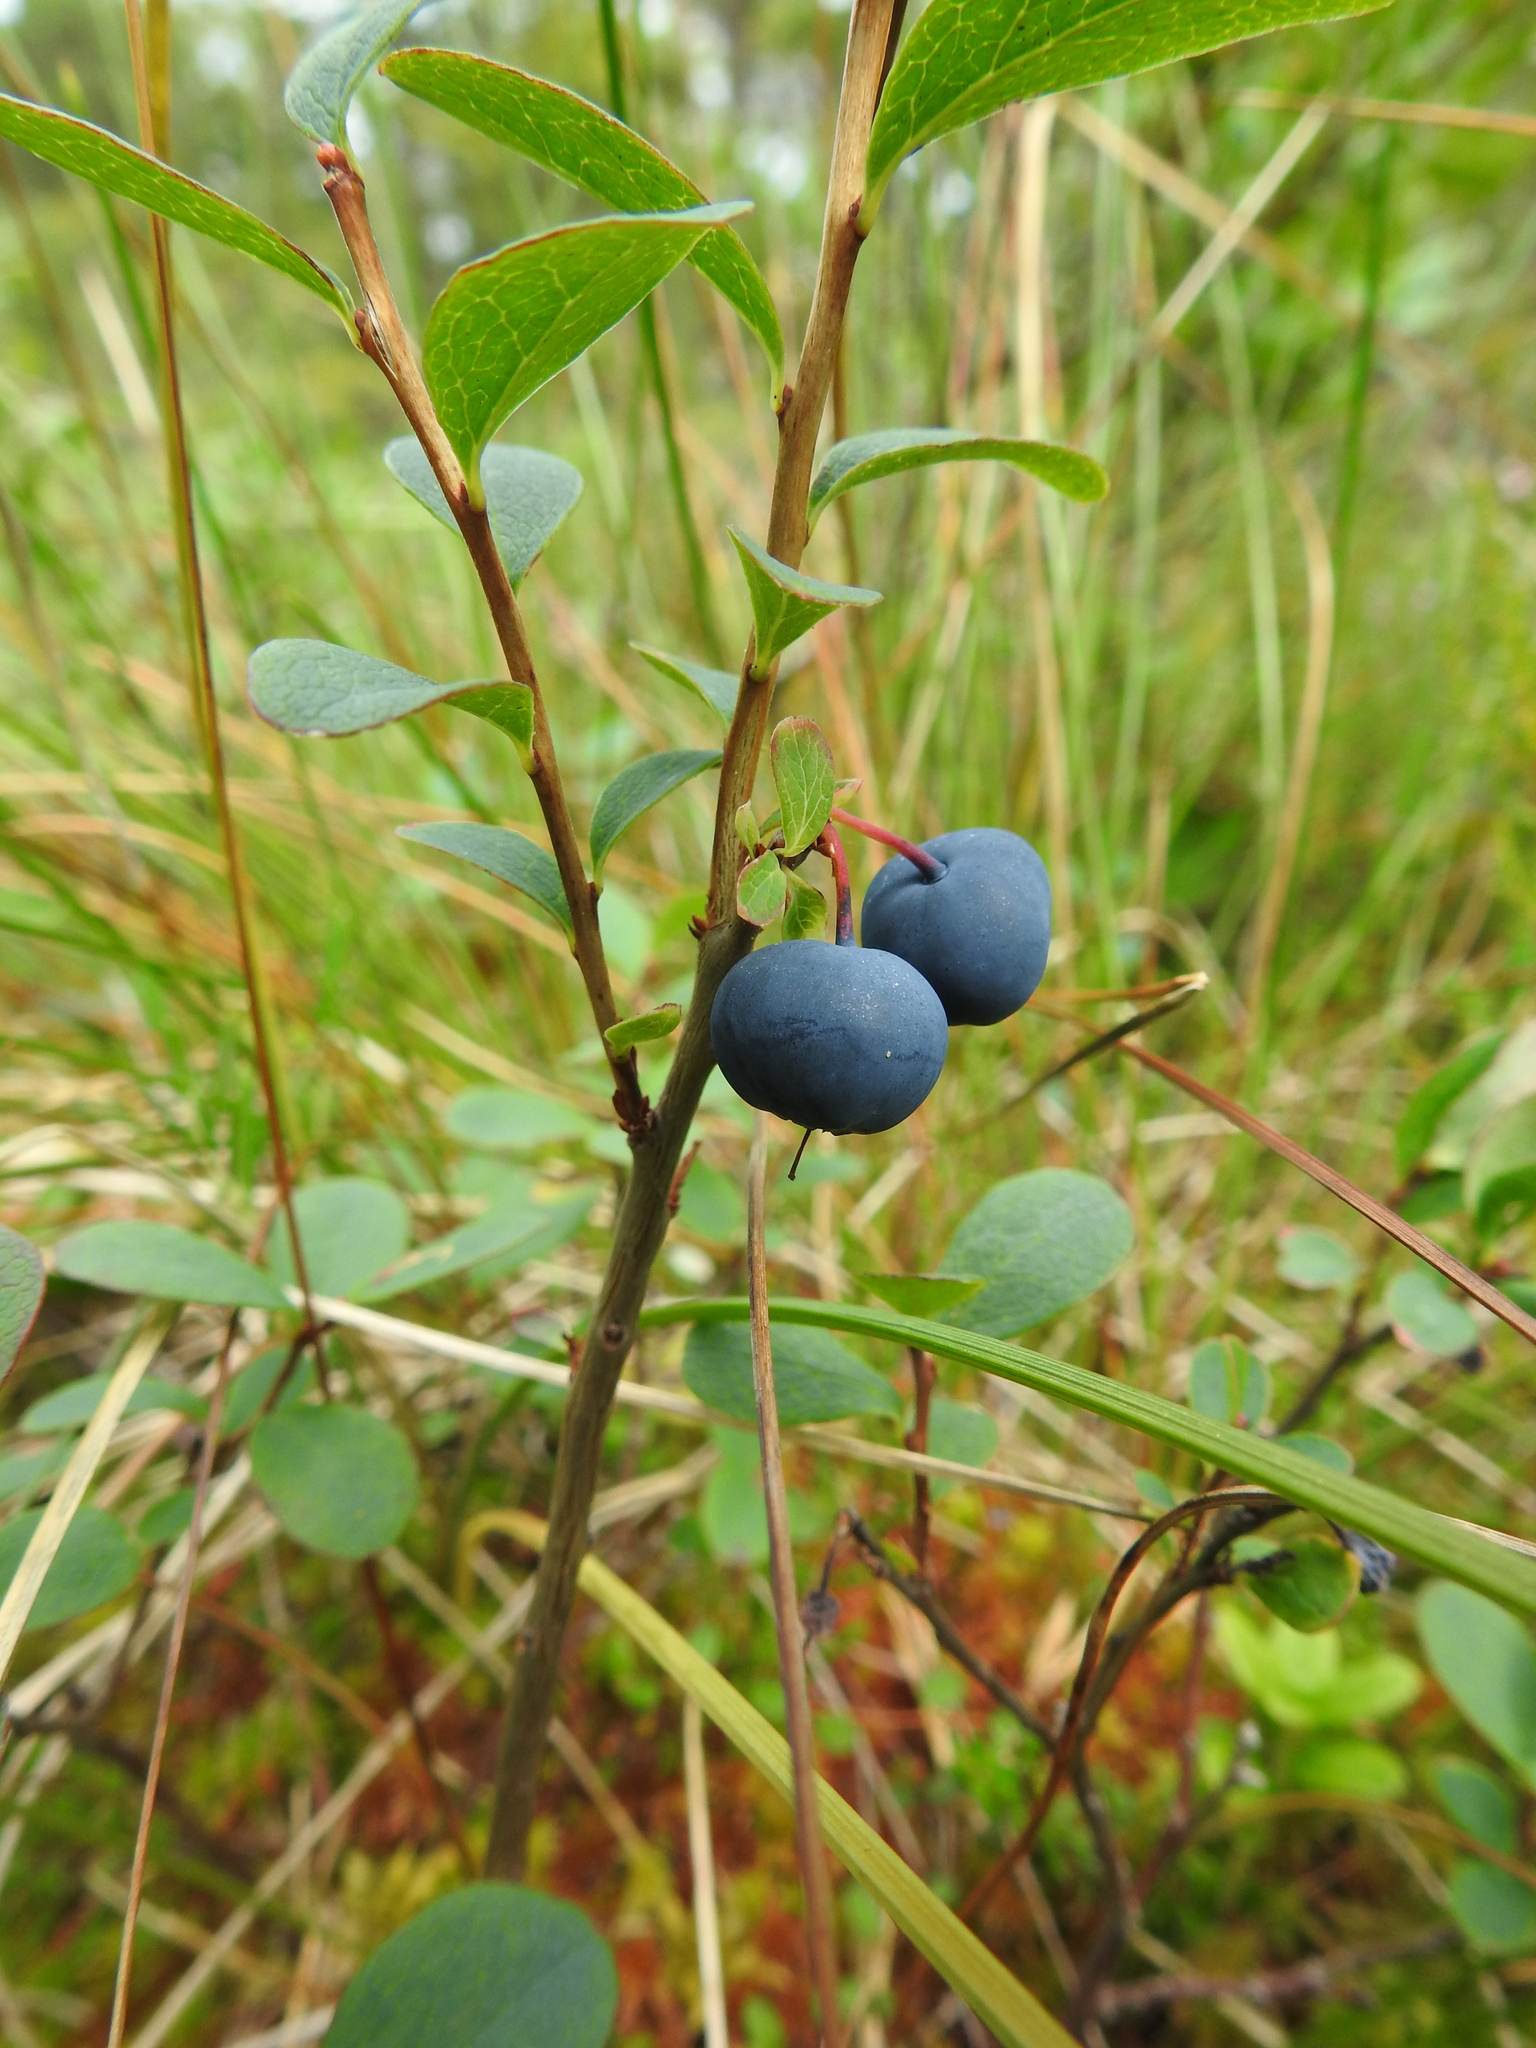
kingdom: Plantae
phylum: Tracheophyta
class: Magnoliopsida
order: Ericales
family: Ericaceae
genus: Vaccinium
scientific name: Vaccinium uliginosum
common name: Bog bilberry
